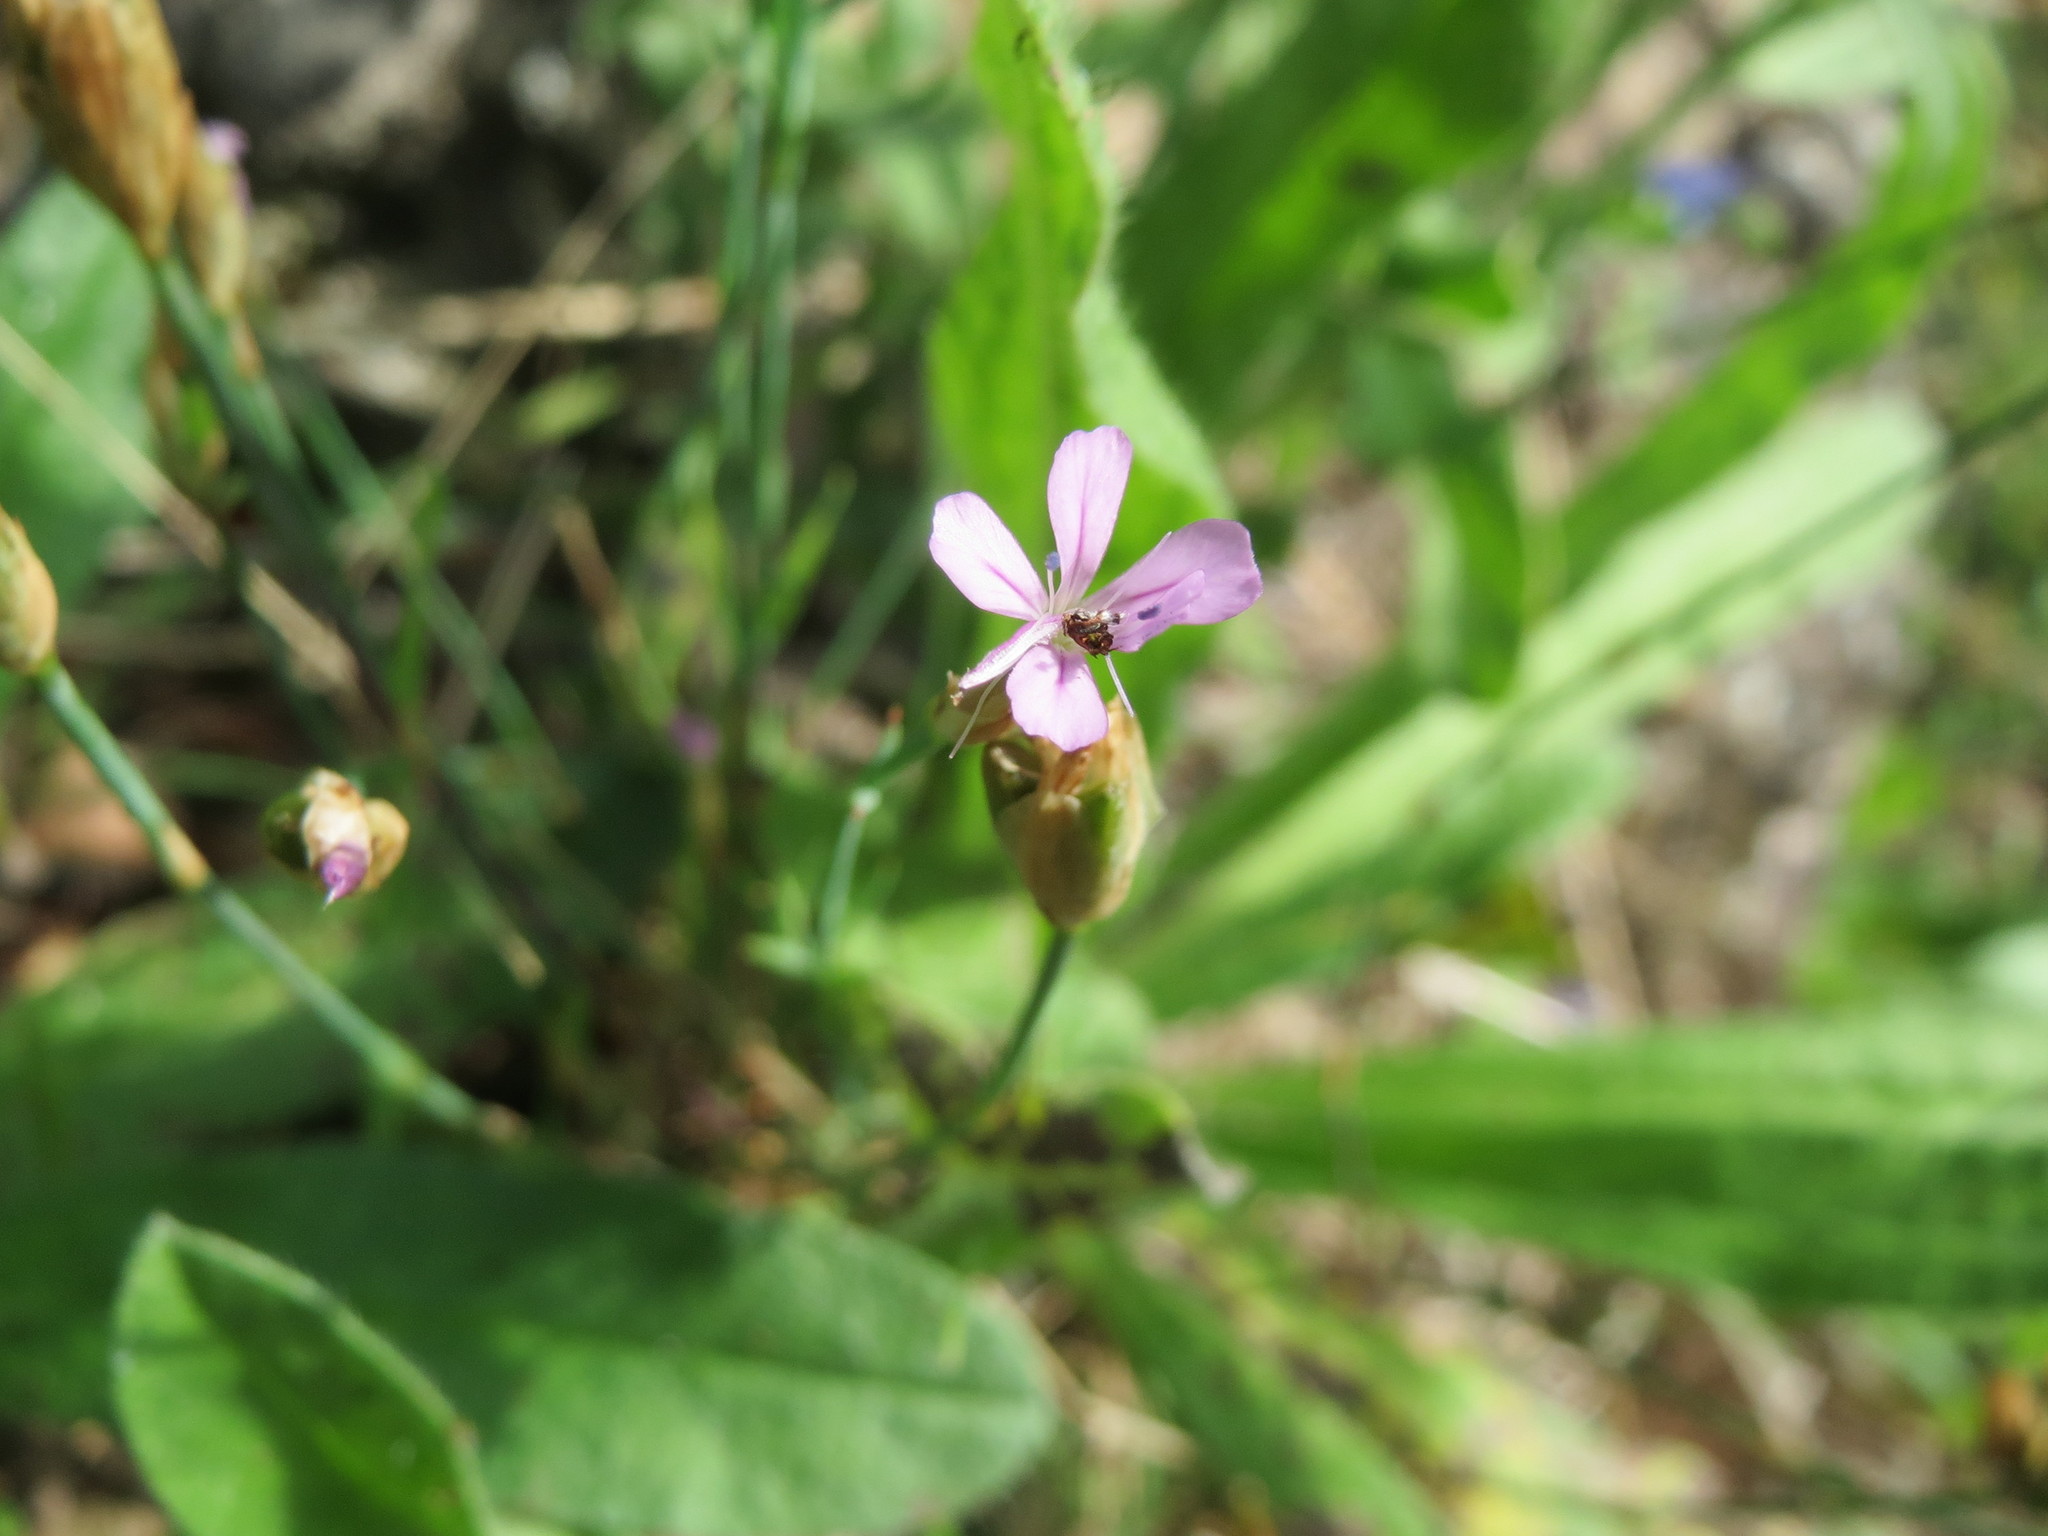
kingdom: Plantae
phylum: Tracheophyta
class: Magnoliopsida
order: Caryophyllales
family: Caryophyllaceae
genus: Petrorhagia
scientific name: Petrorhagia prolifera
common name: Proliferous pink
